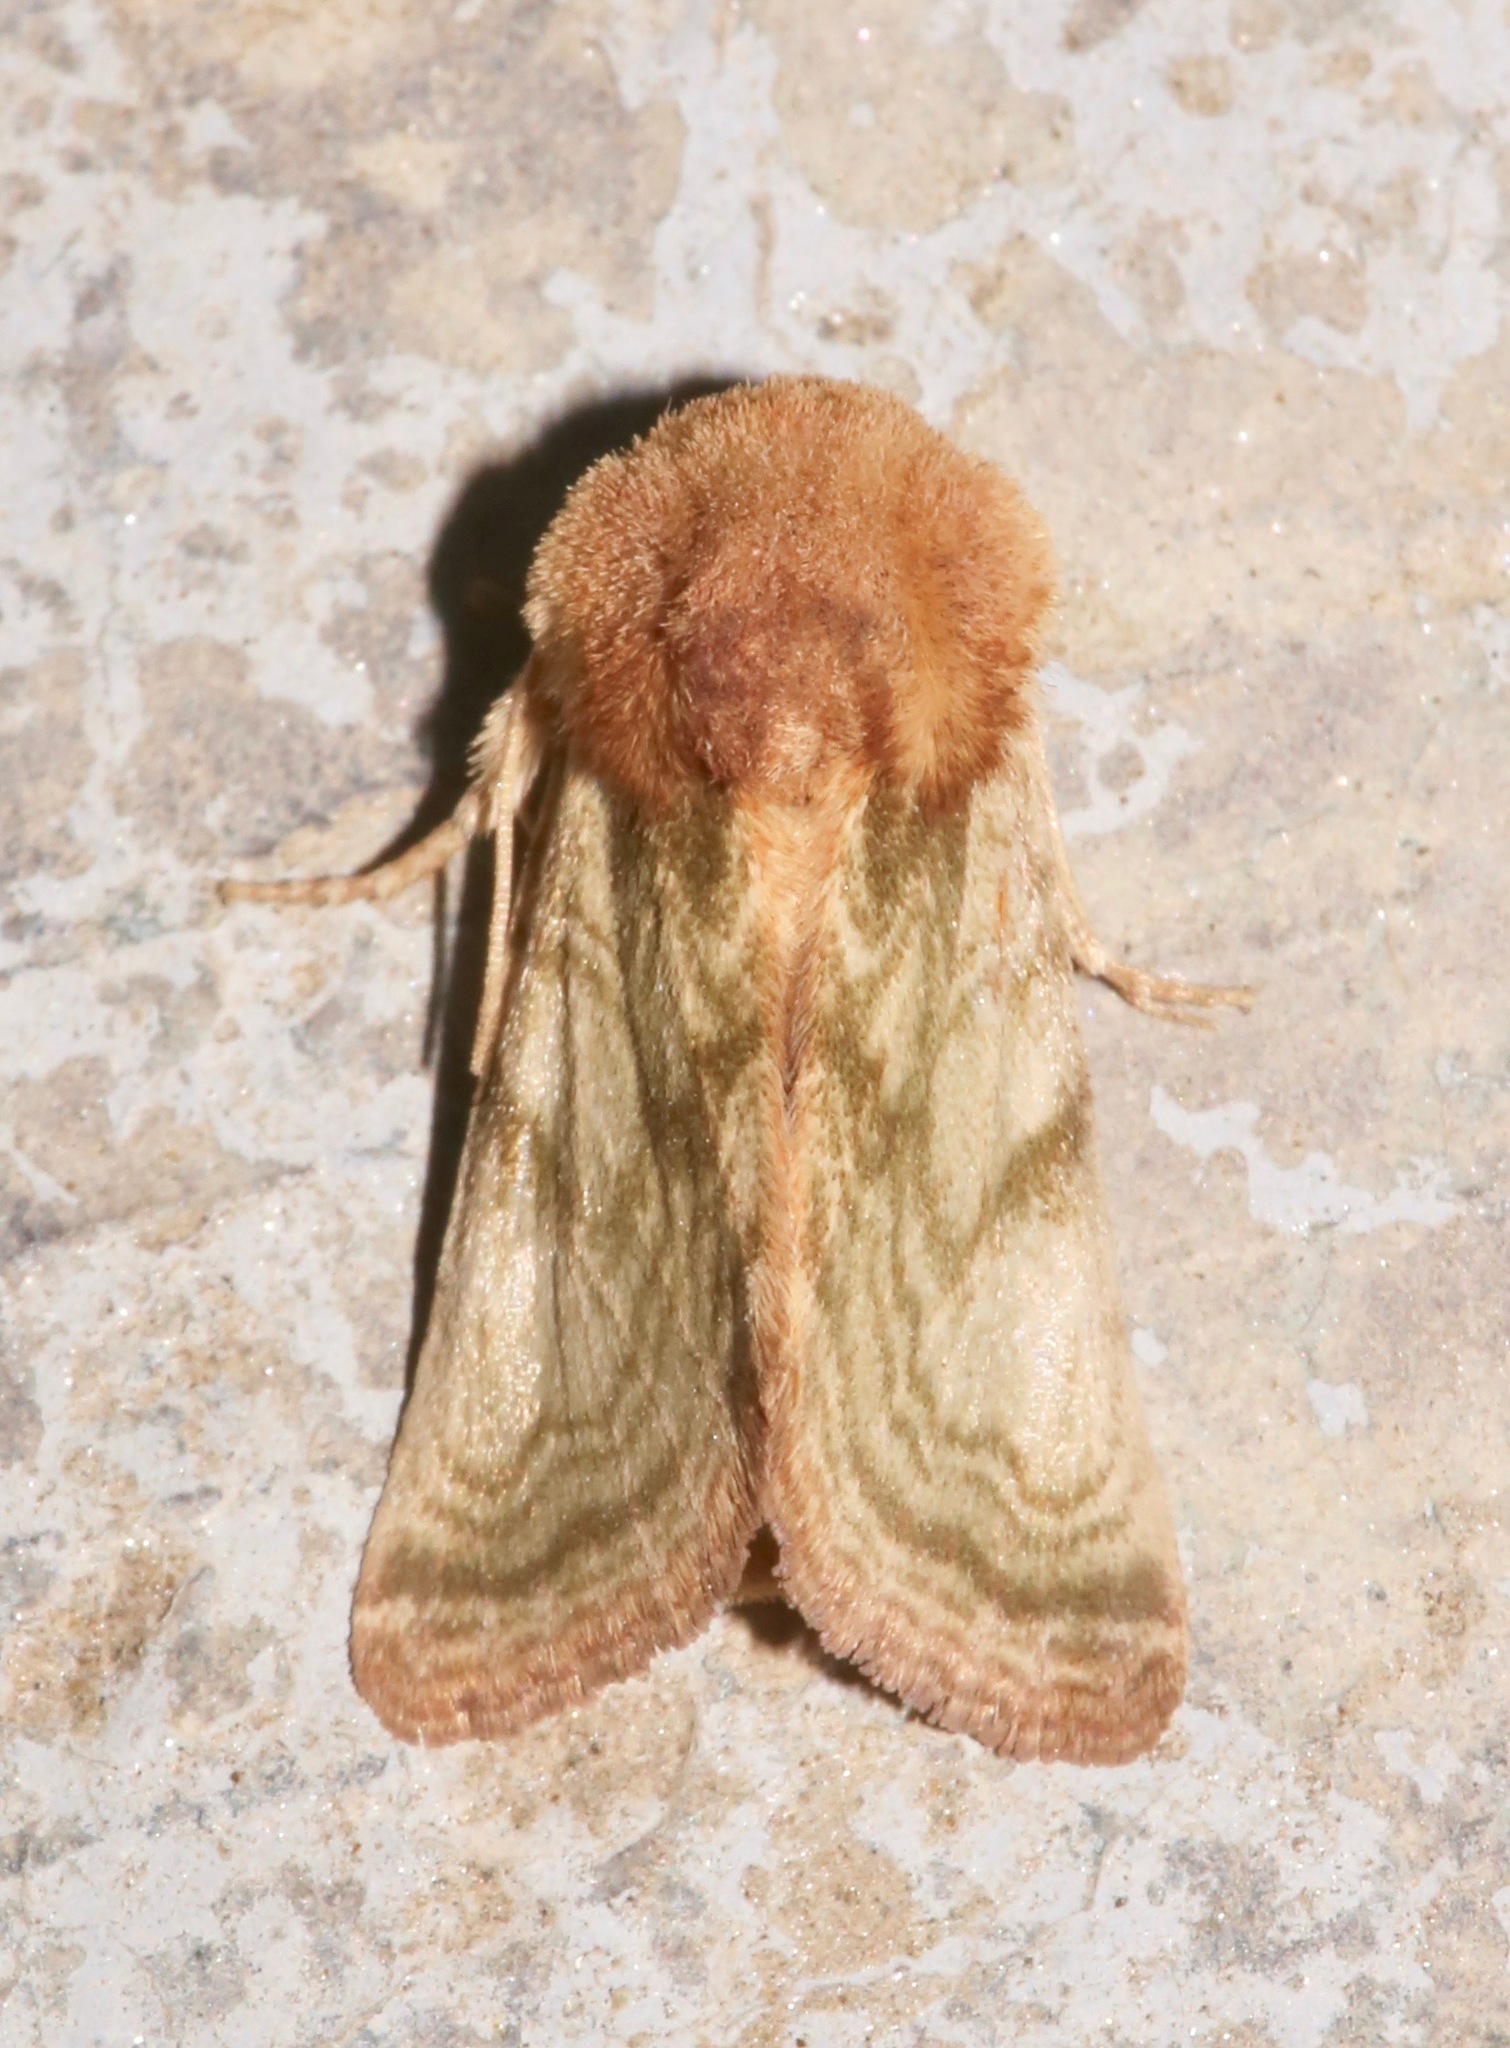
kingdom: Animalia
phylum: Arthropoda
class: Insecta
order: Lepidoptera
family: Noctuidae
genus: Nocloa
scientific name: Nocloa rivulosa
